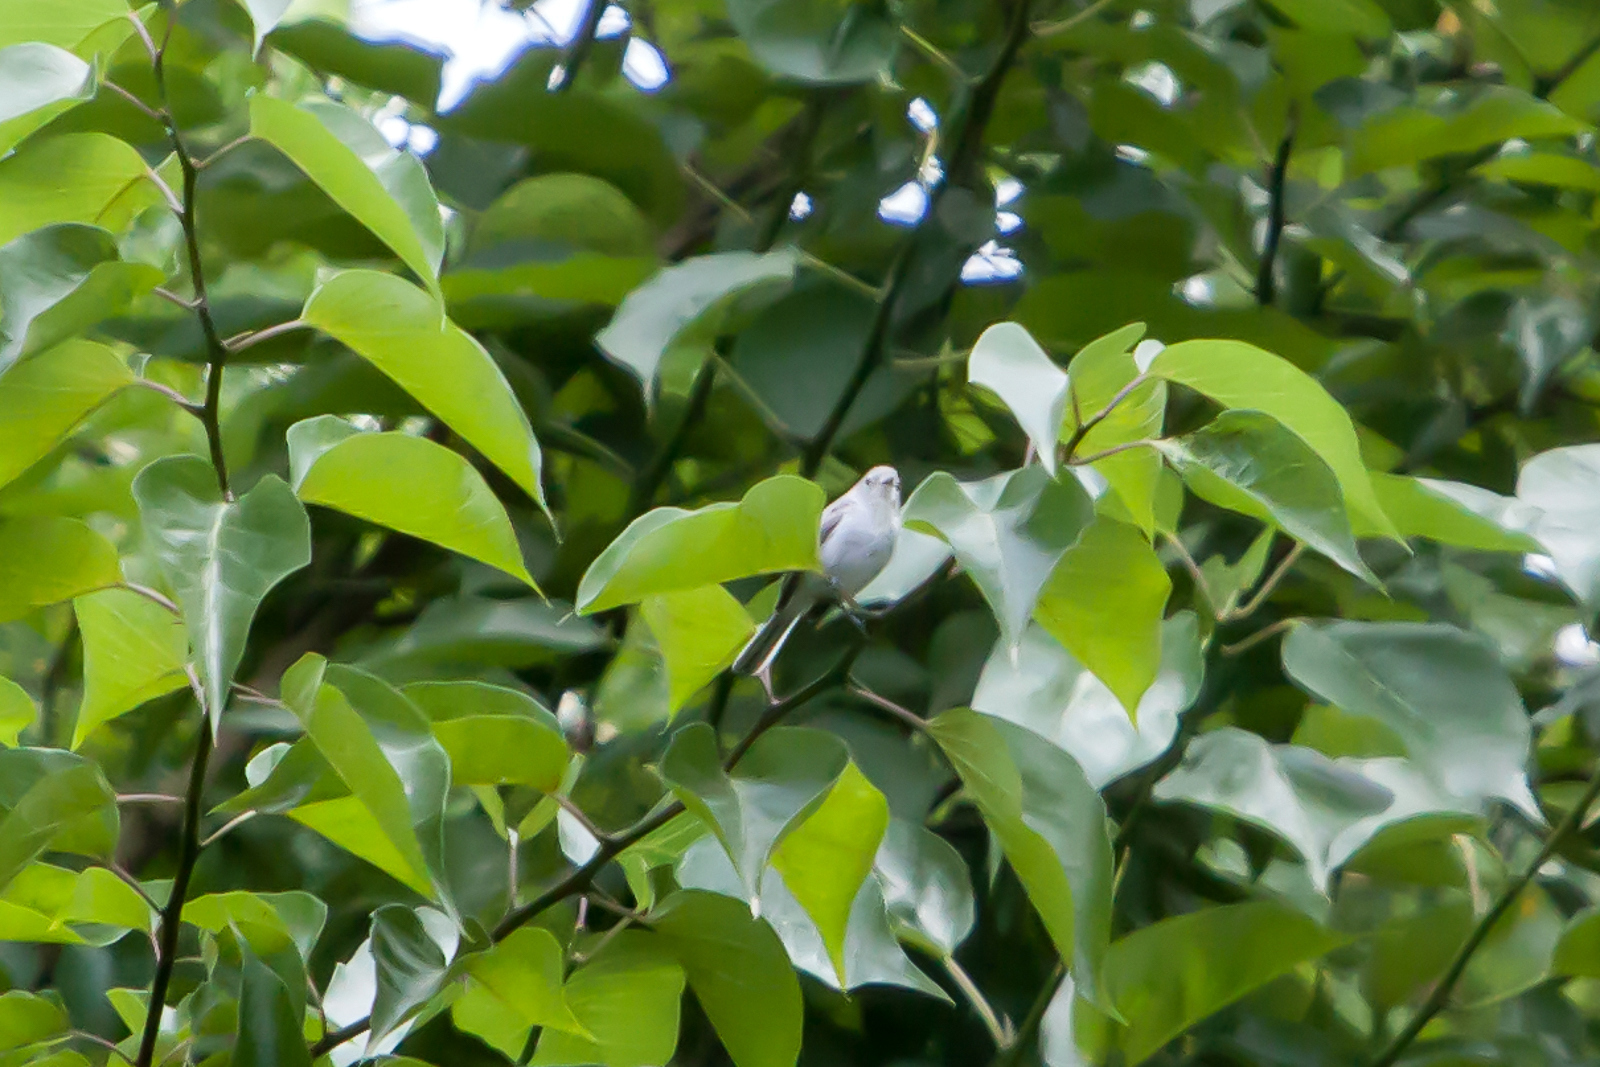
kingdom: Animalia
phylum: Chordata
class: Aves
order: Passeriformes
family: Polioptilidae
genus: Polioptila
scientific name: Polioptila caerulea
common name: Blue-gray gnatcatcher
